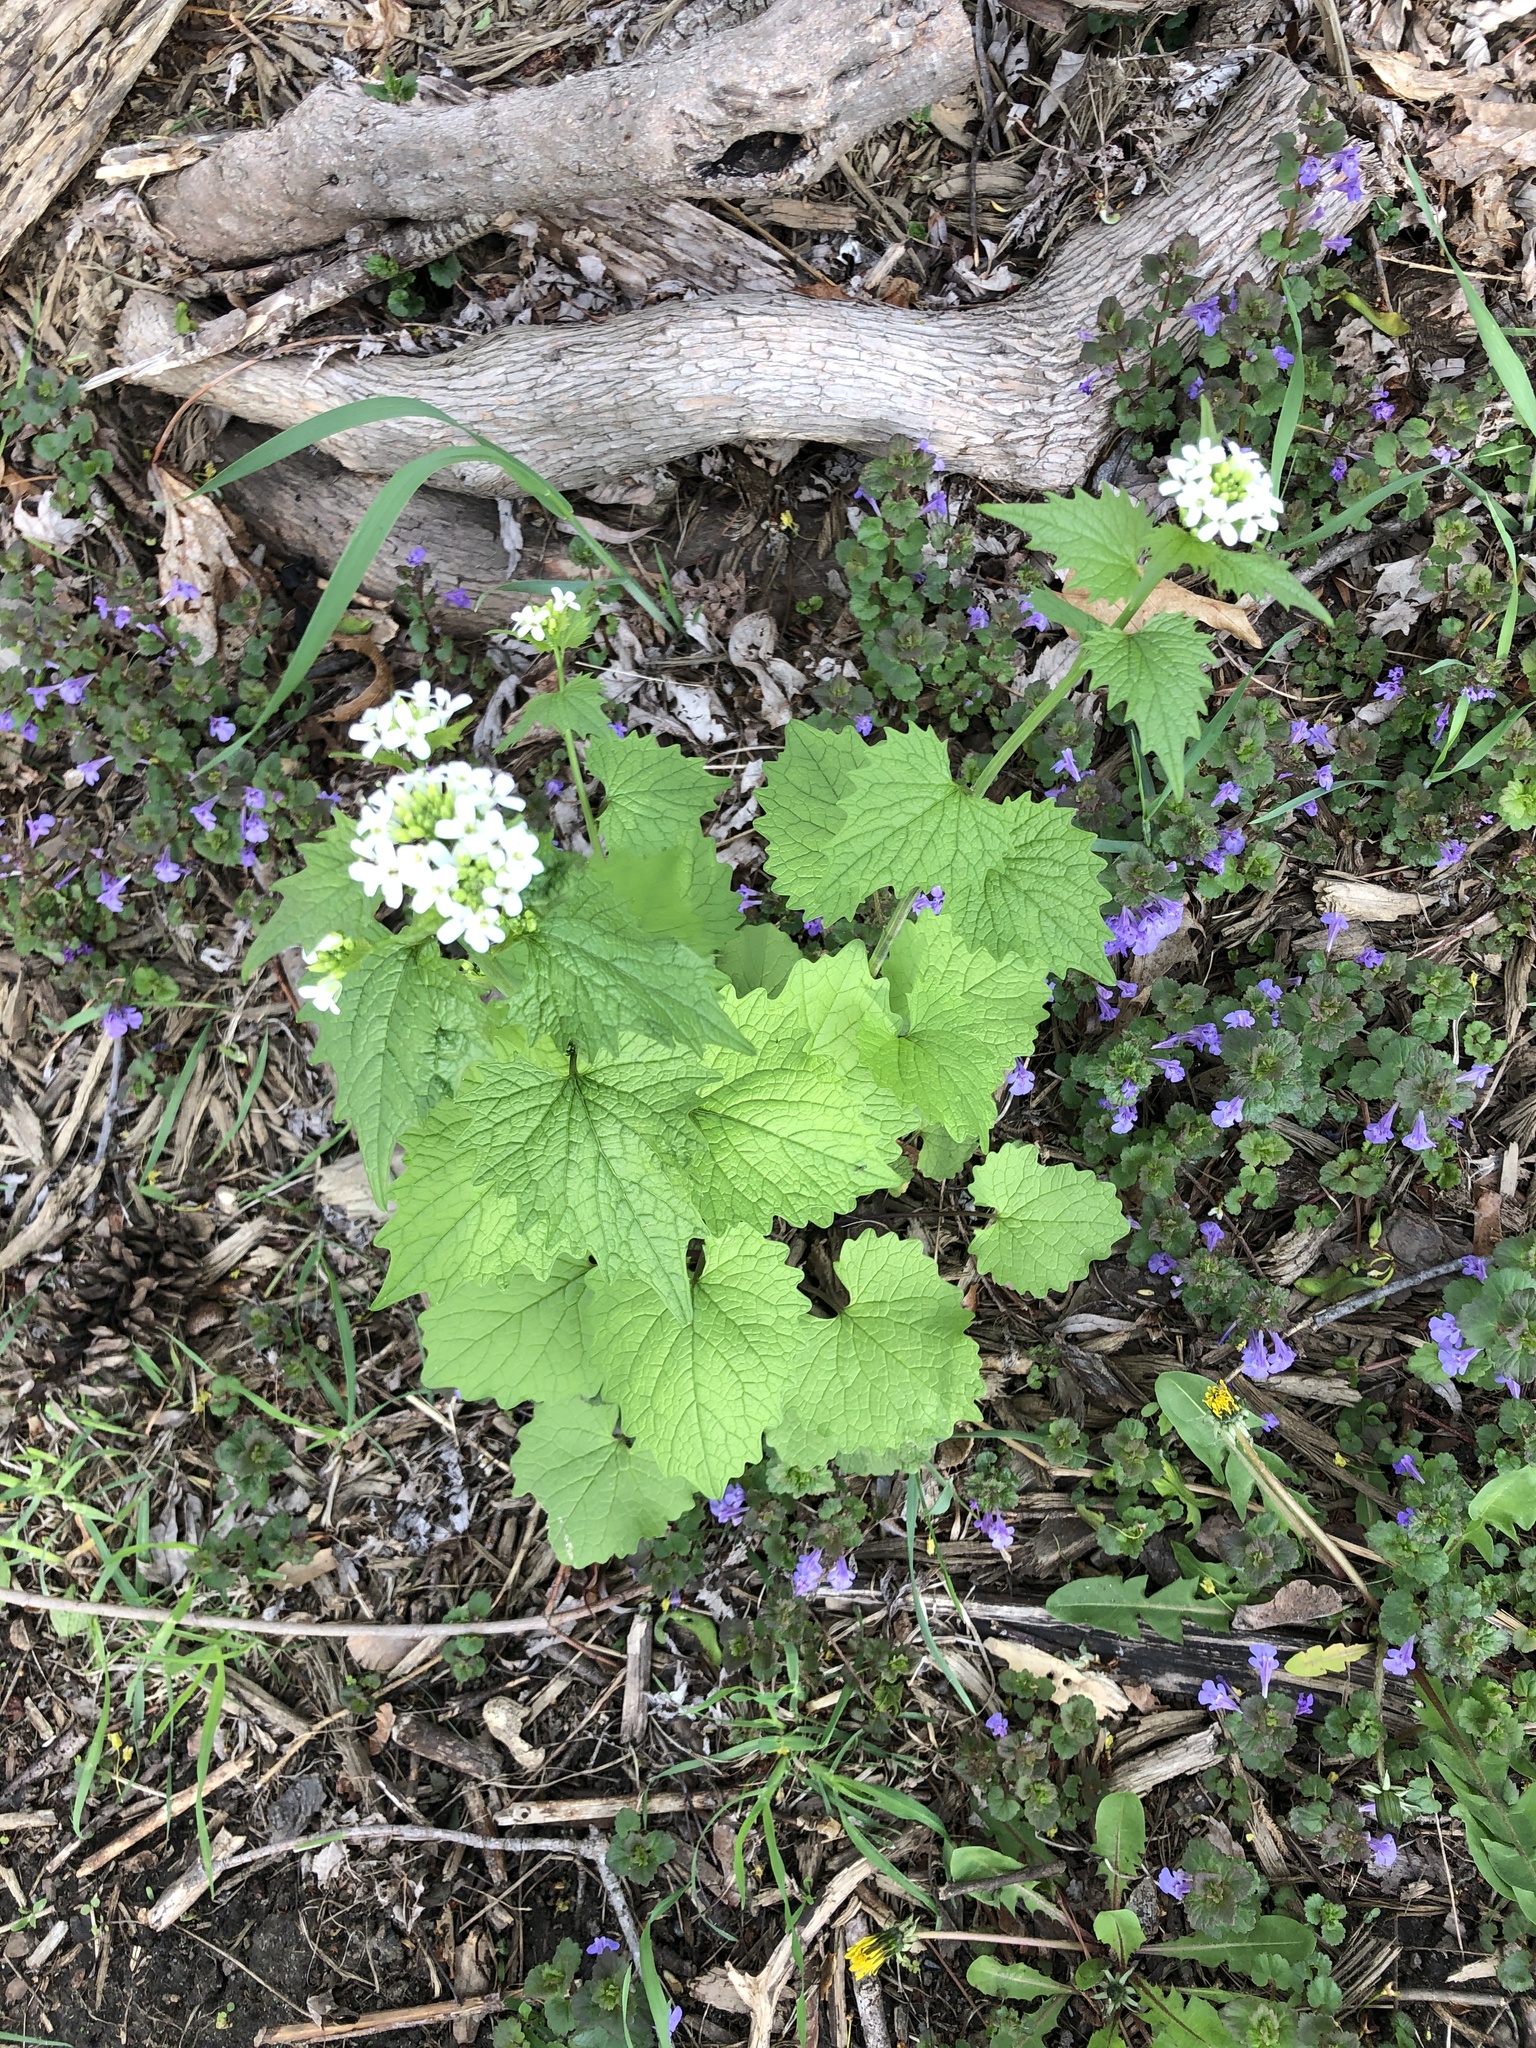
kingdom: Plantae
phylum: Tracheophyta
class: Magnoliopsida
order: Brassicales
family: Brassicaceae
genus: Alliaria
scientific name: Alliaria petiolata
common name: Garlic mustard
